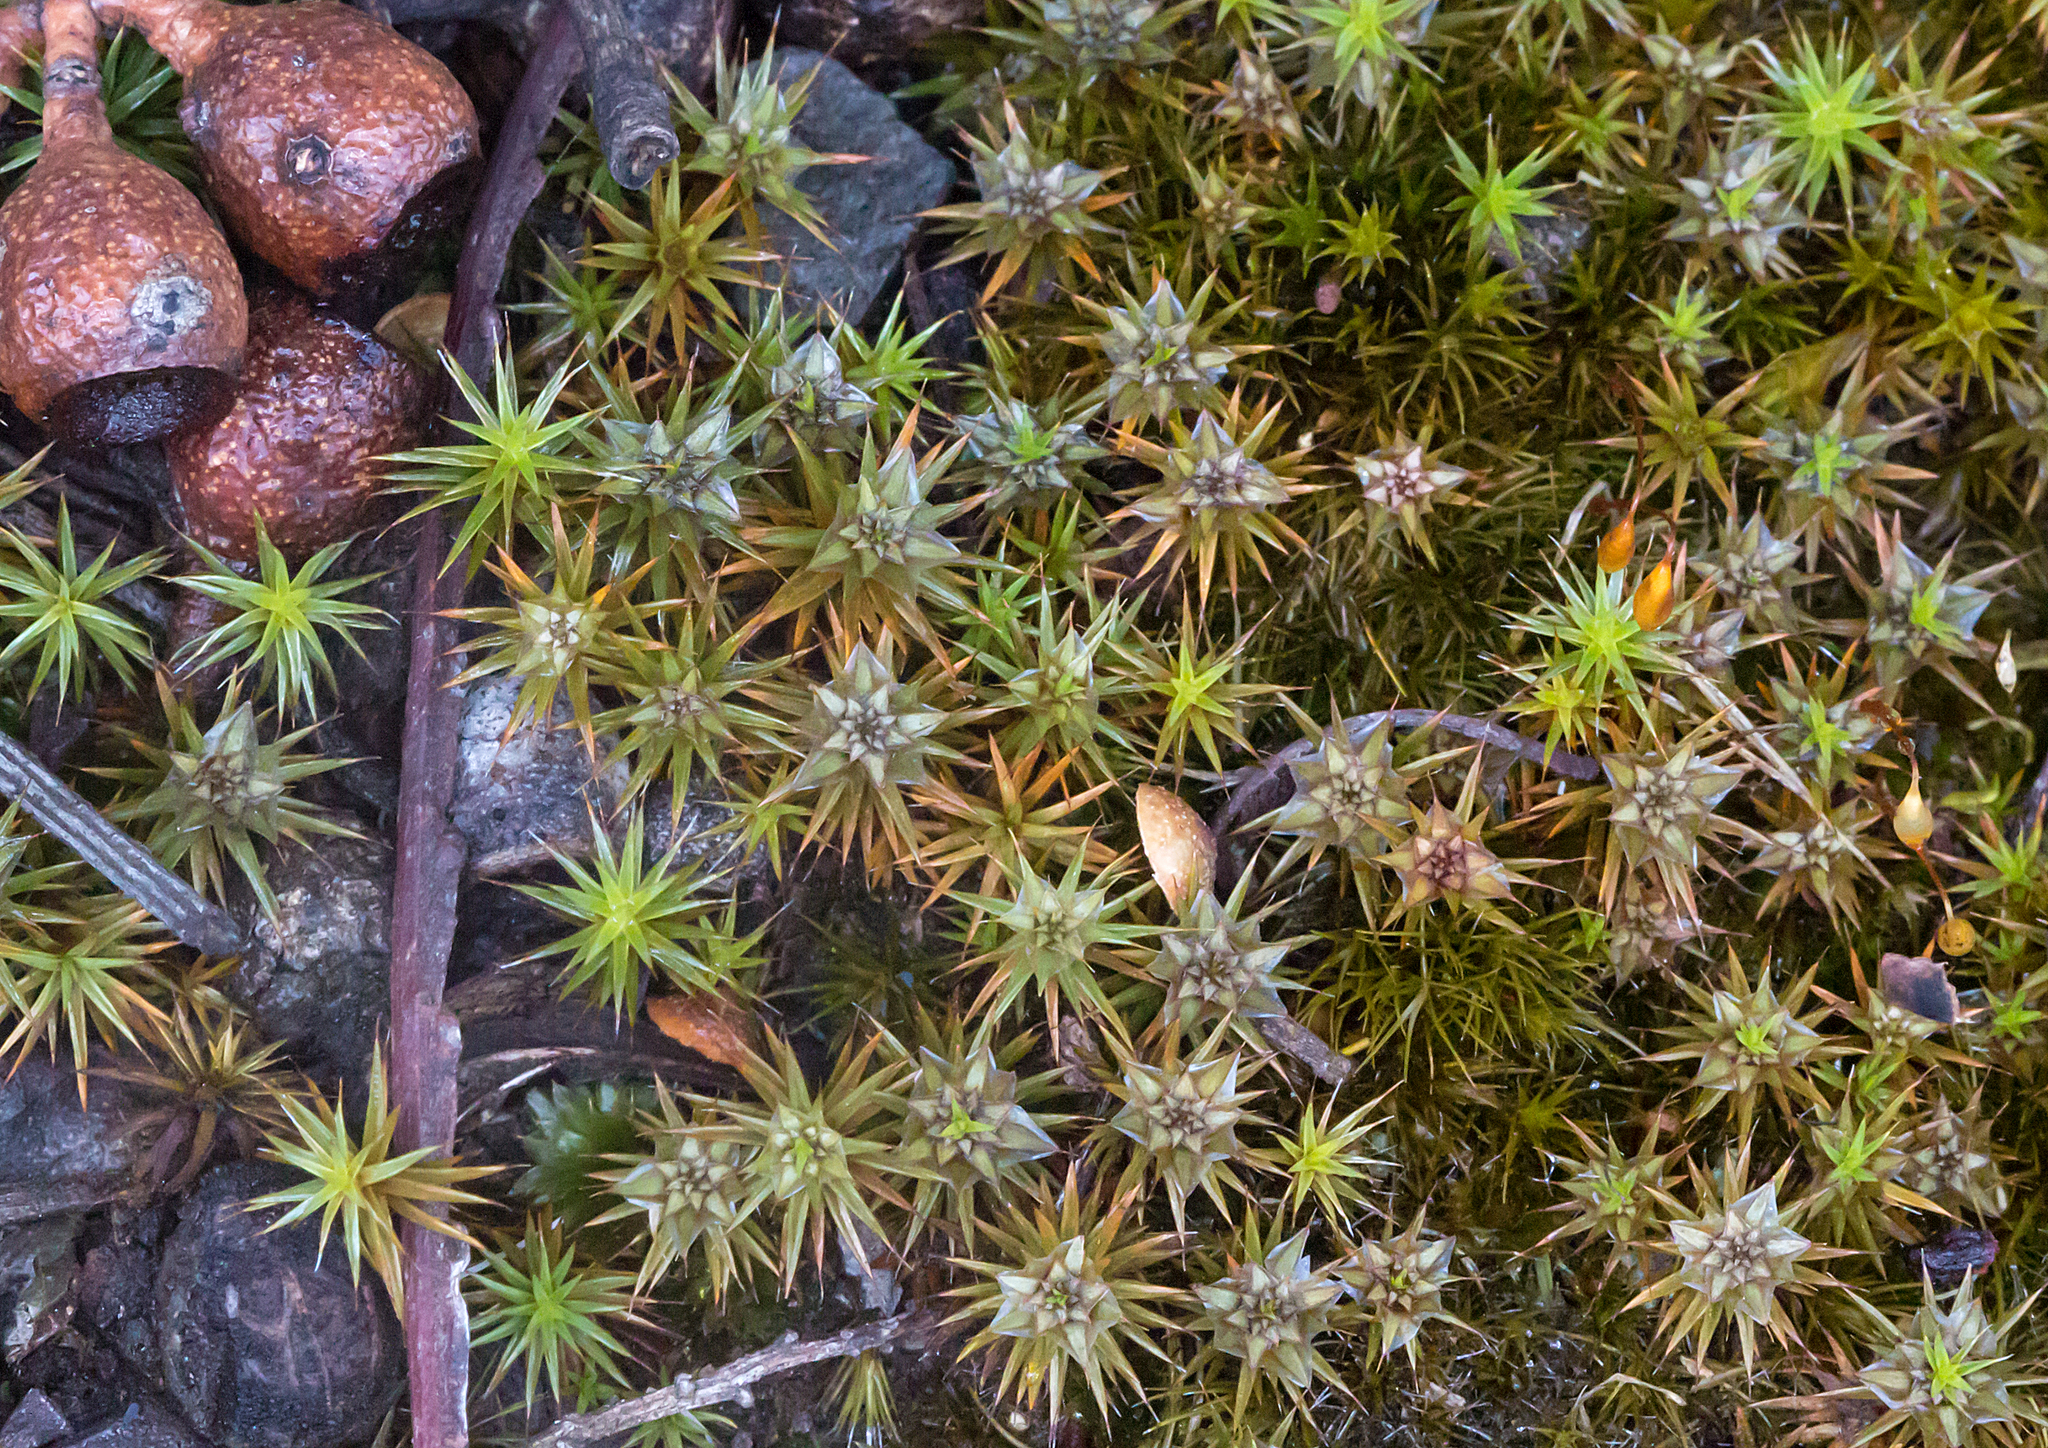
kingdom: Plantae
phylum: Bryophyta
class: Polytrichopsida
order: Polytrichales
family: Polytrichaceae
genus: Polytrichum
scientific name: Polytrichum juniperinum
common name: Juniper haircap moss
